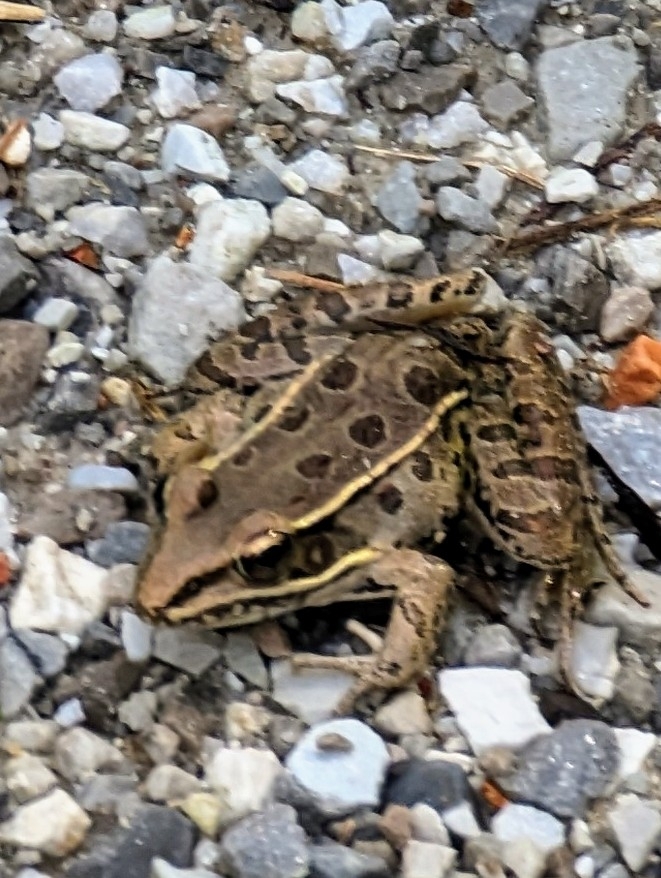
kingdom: Animalia
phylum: Chordata
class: Amphibia
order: Anura
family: Ranidae
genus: Lithobates
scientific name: Lithobates sphenocephalus
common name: Southern leopard frog
